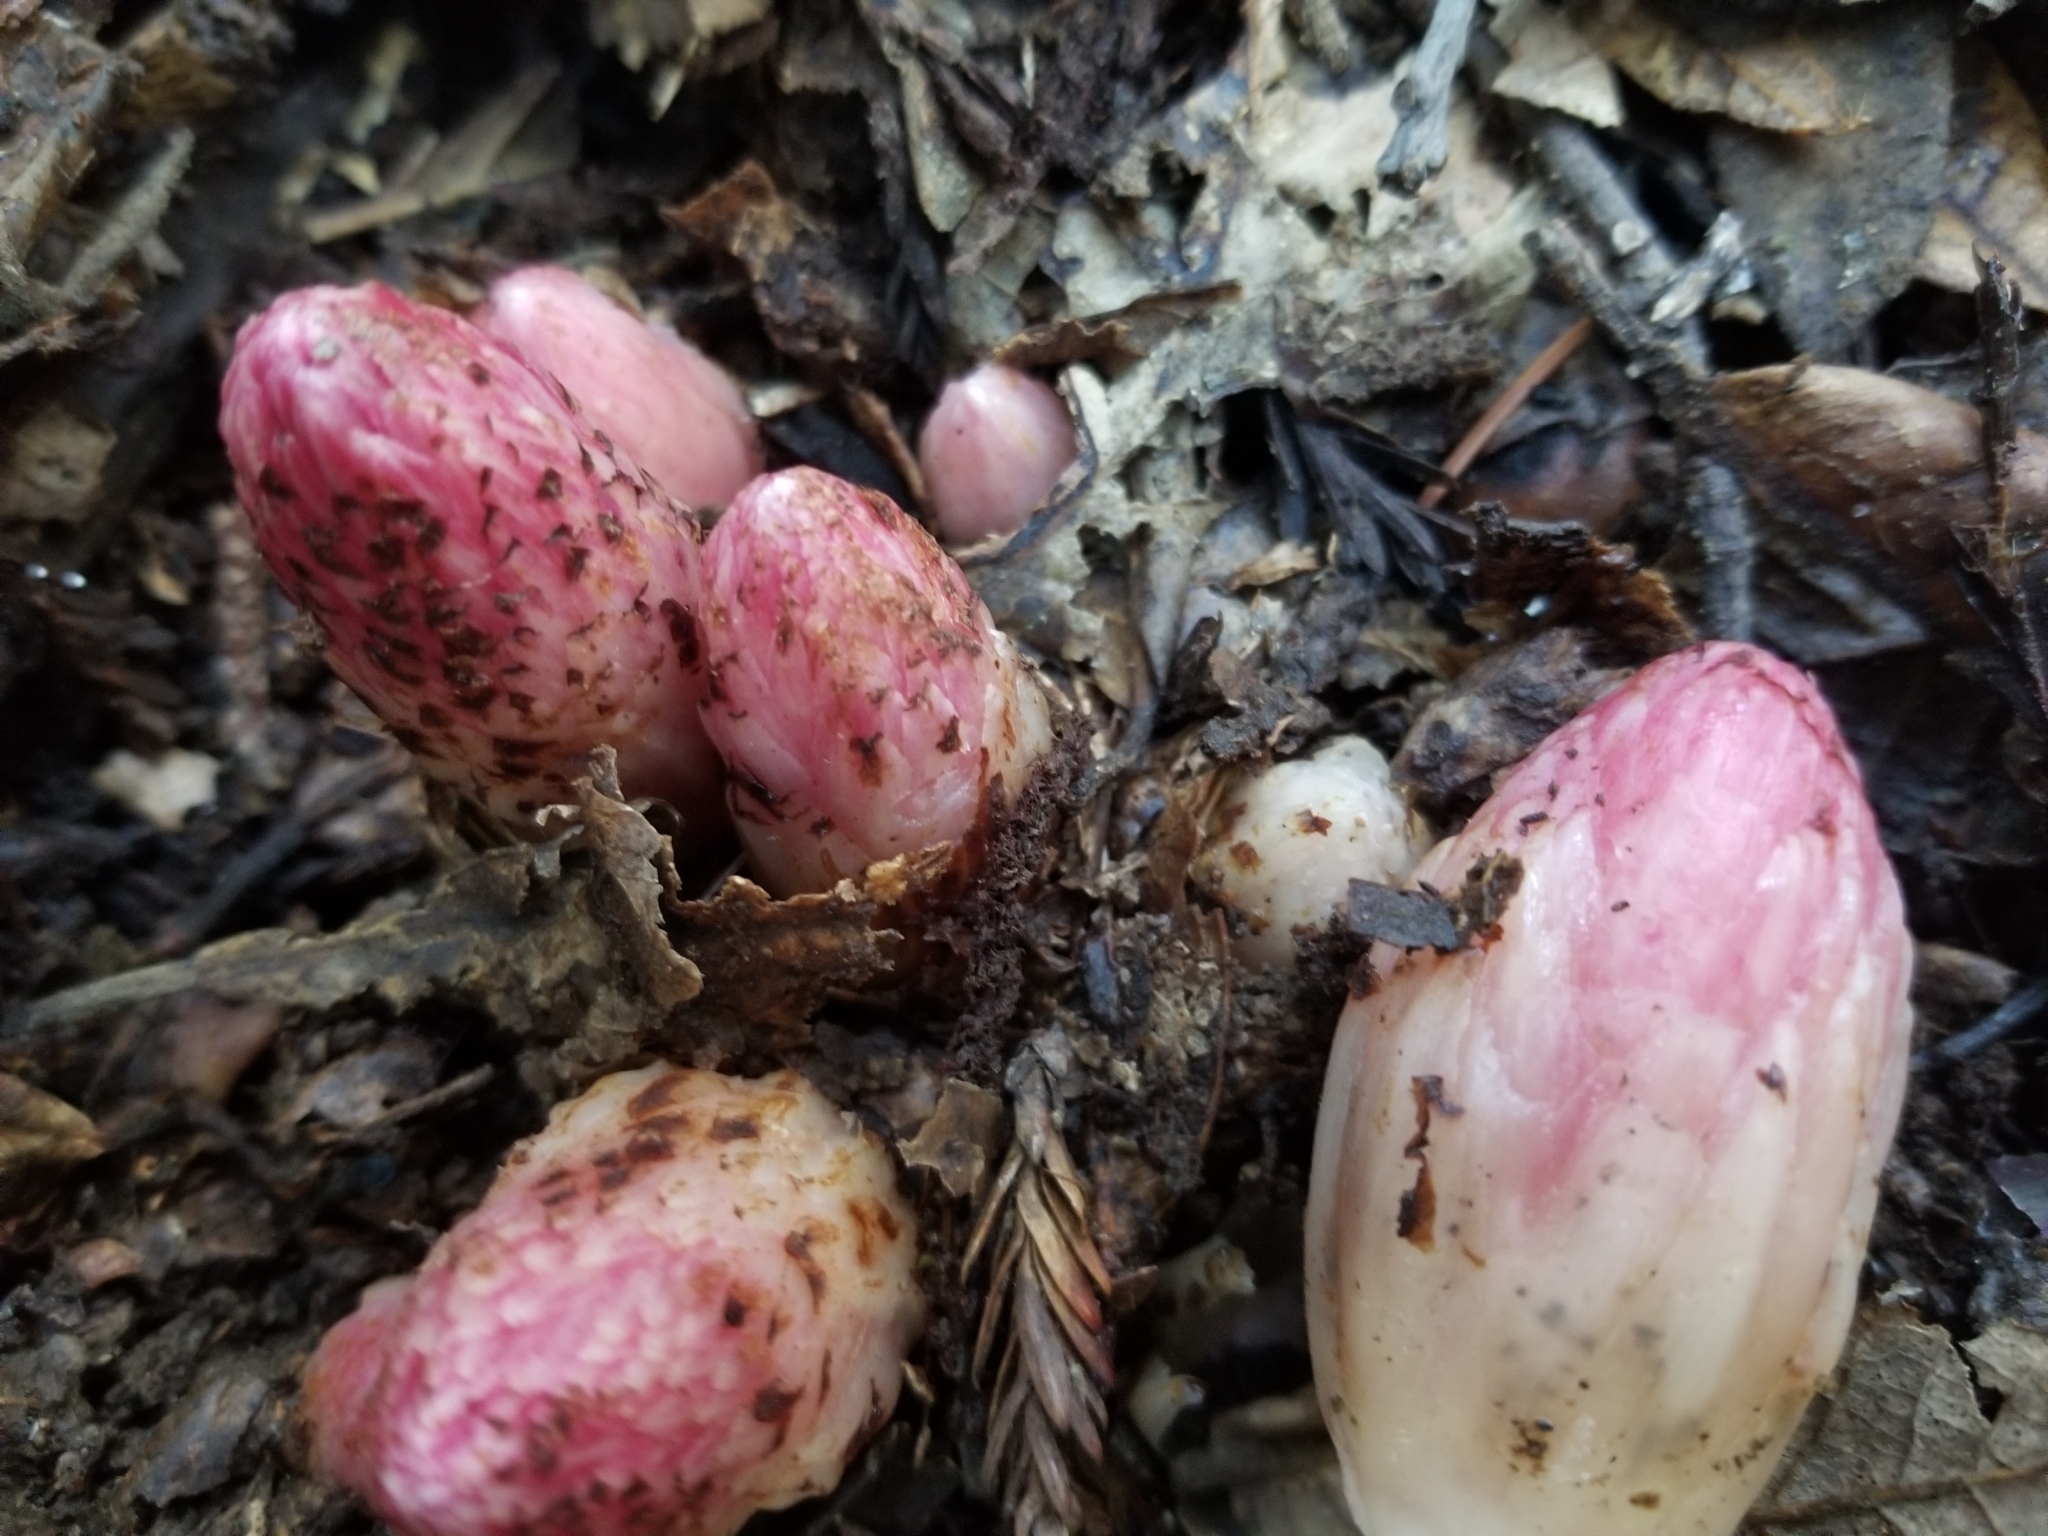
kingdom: Plantae
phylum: Tracheophyta
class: Magnoliopsida
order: Ericales
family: Ericaceae
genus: Hemitomes
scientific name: Hemitomes congestum
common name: Cone plant
